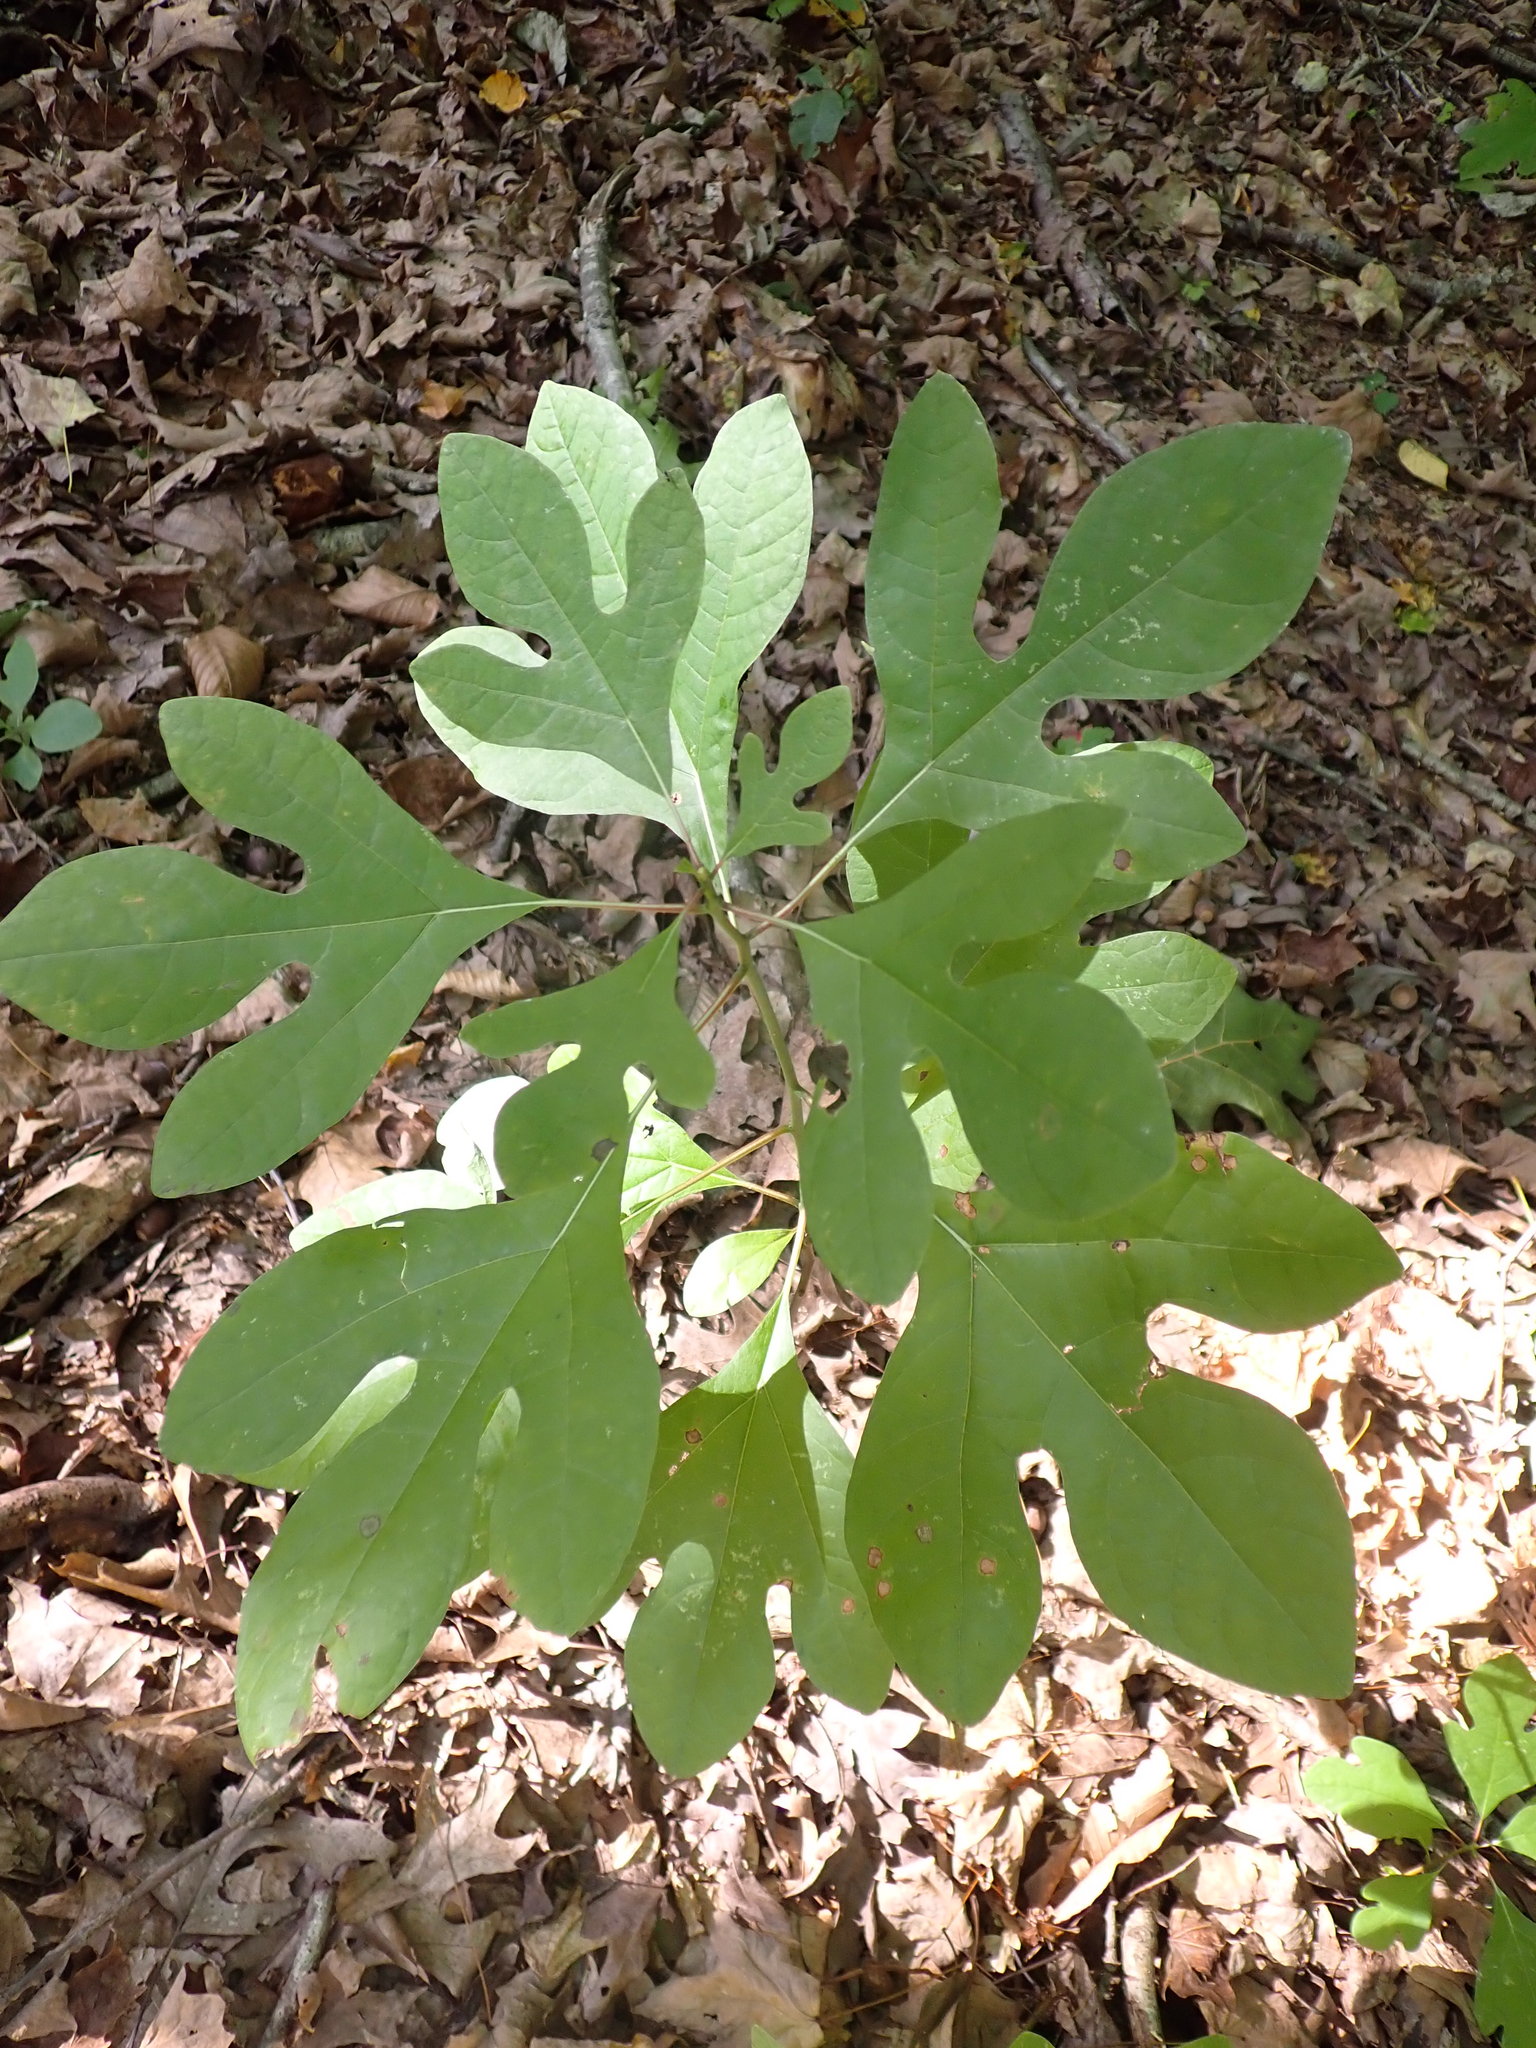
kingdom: Plantae
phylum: Tracheophyta
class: Magnoliopsida
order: Laurales
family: Lauraceae
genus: Sassafras
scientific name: Sassafras albidum
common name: Sassafras
